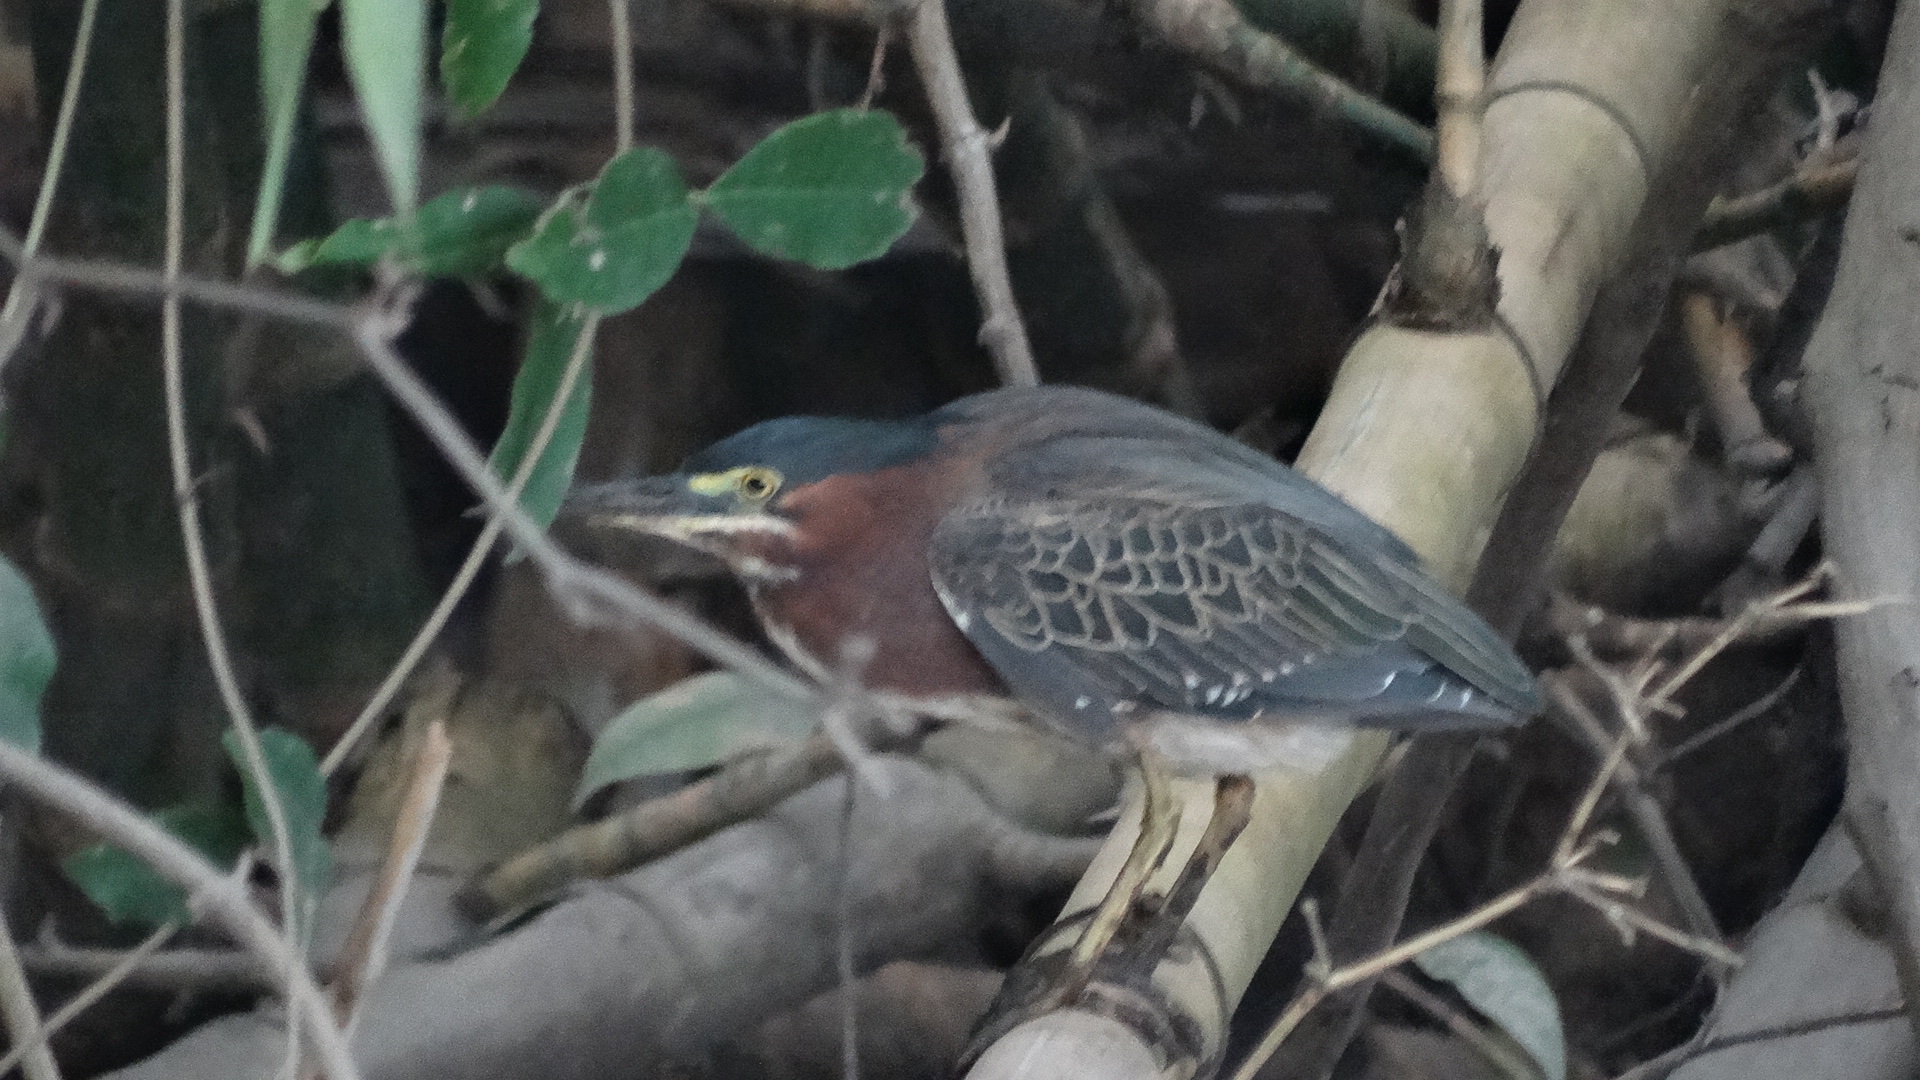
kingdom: Animalia
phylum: Chordata
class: Aves
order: Pelecaniformes
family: Ardeidae
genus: Butorides
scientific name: Butorides virescens
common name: Green heron
